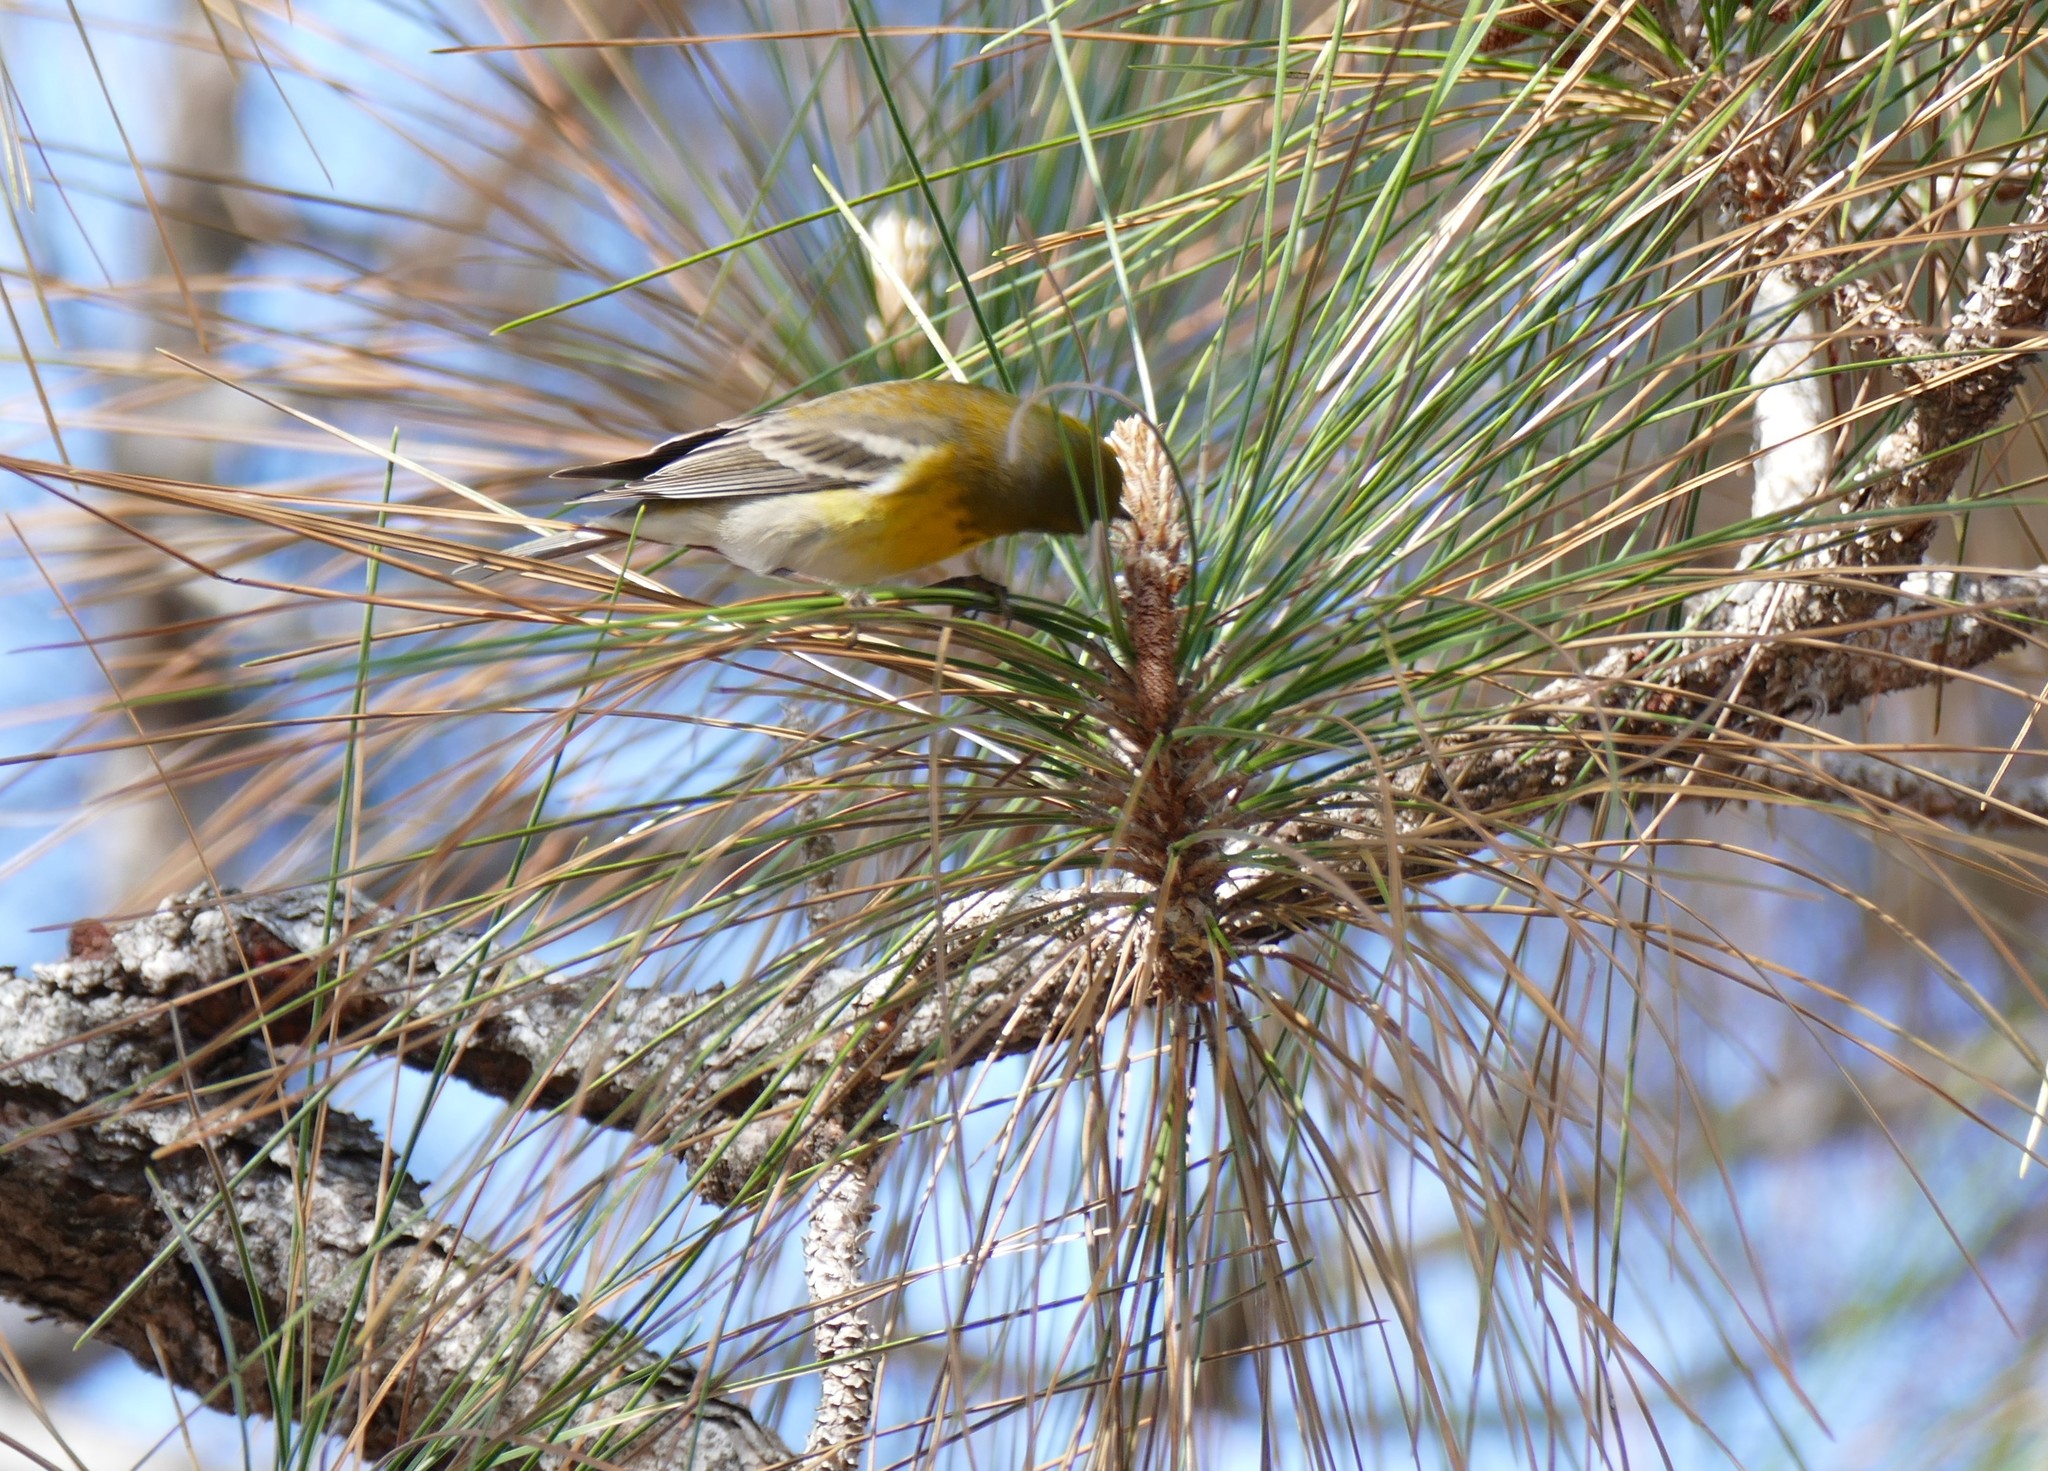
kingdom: Animalia
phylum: Chordata
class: Aves
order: Passeriformes
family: Parulidae
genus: Setophaga
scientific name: Setophaga pinus
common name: Pine warbler
